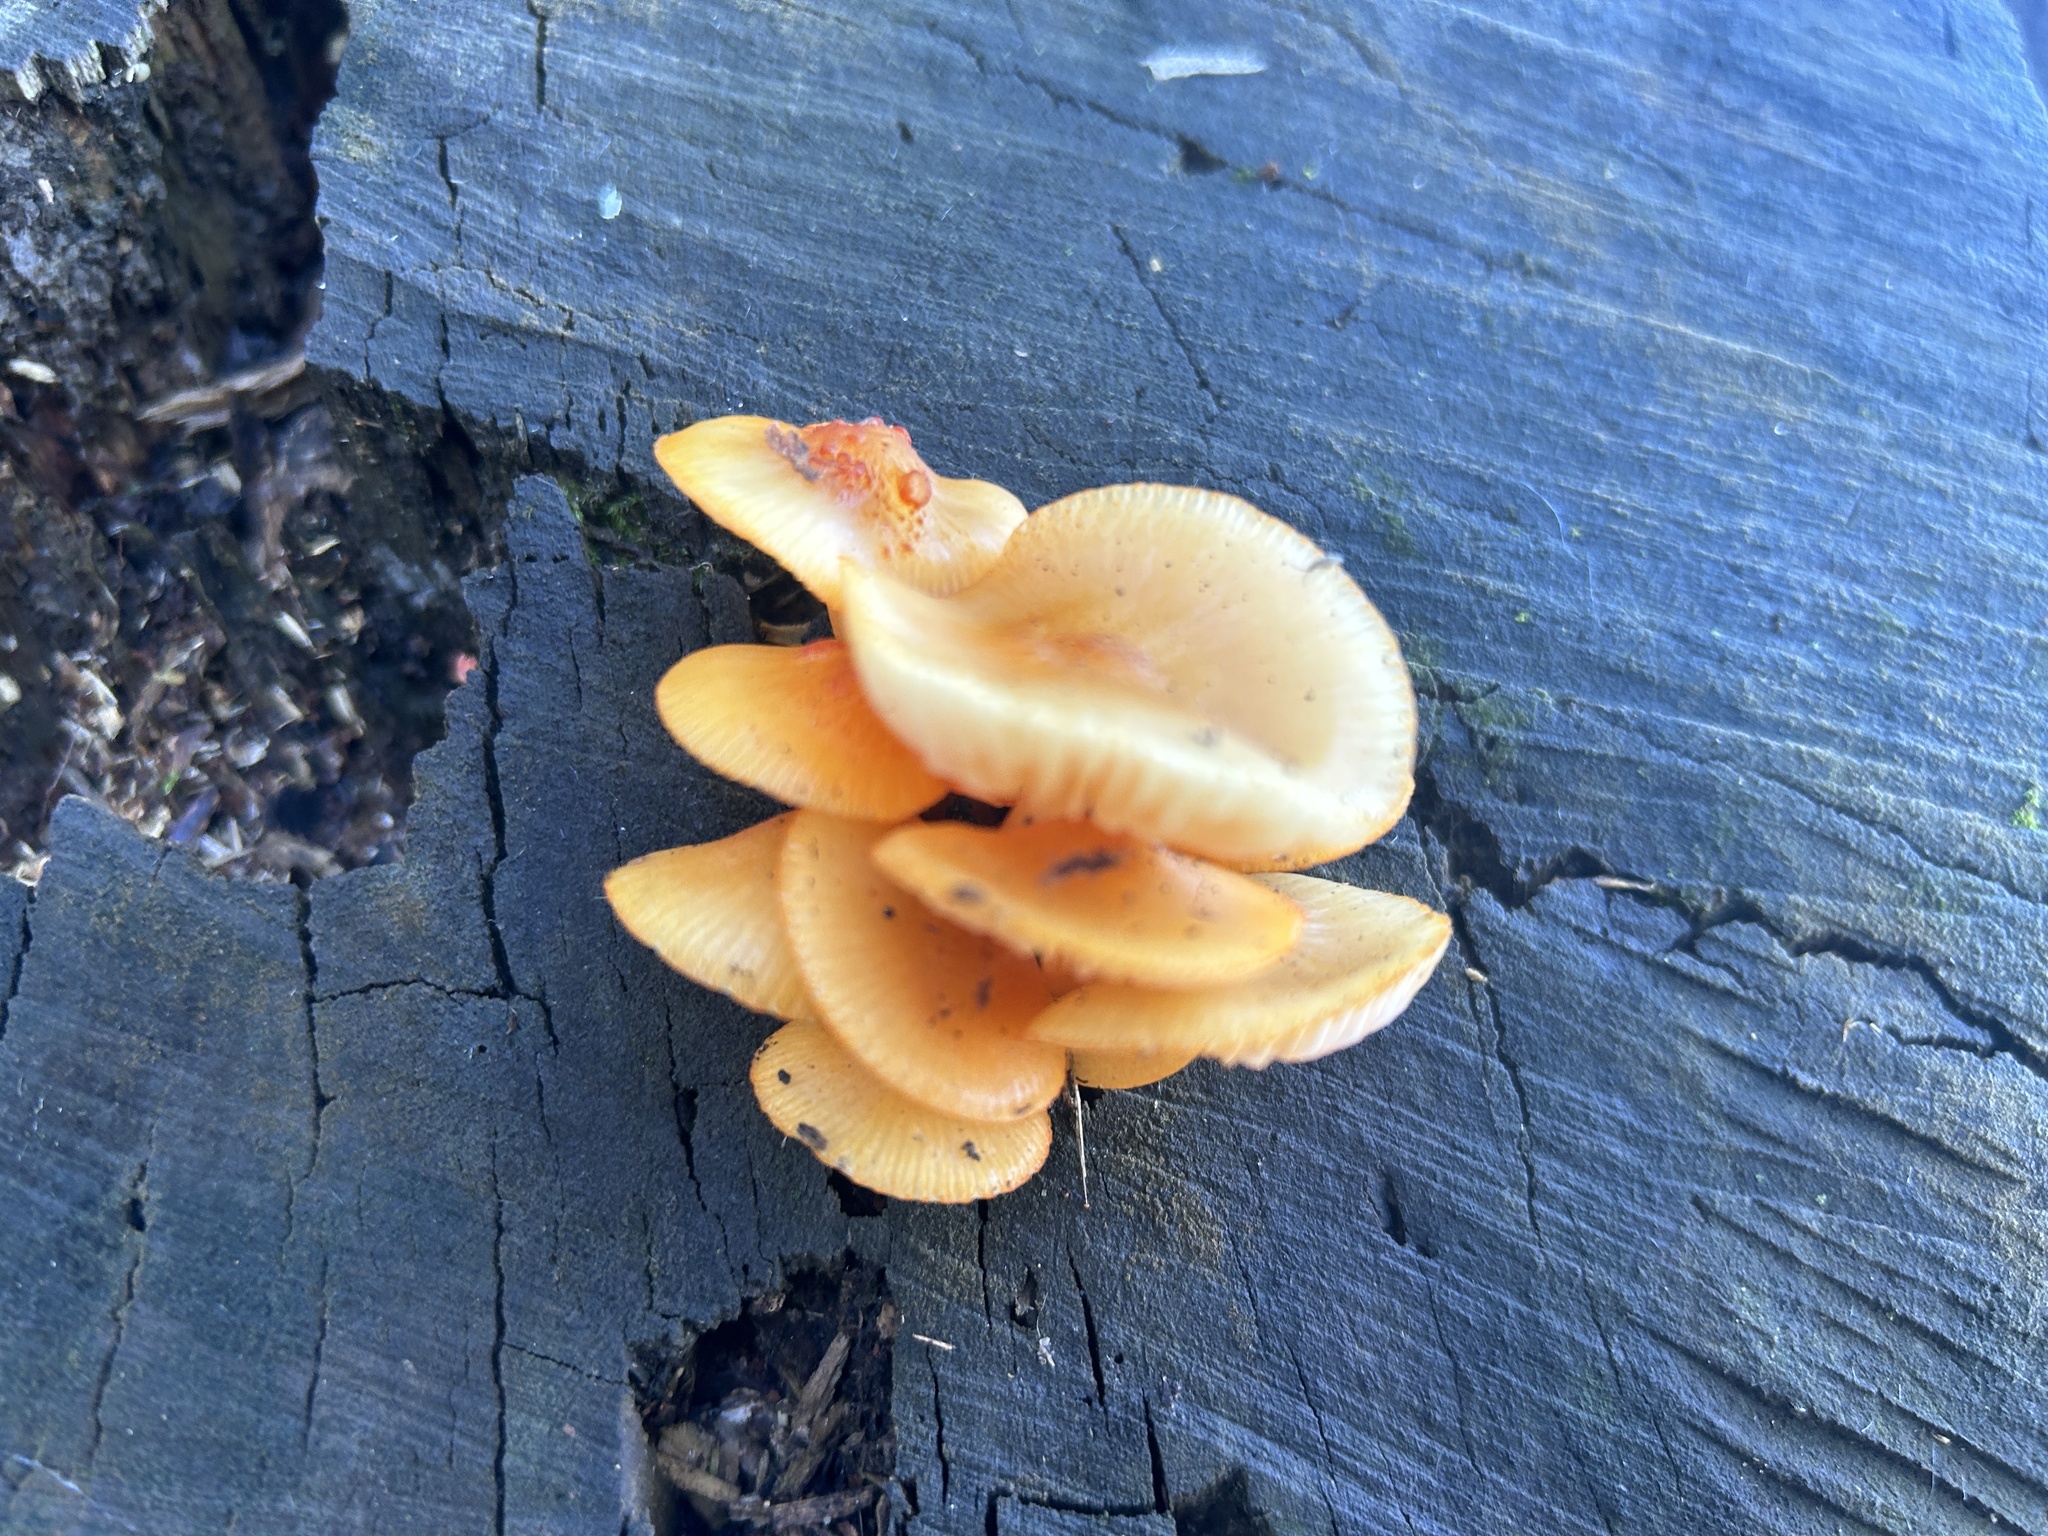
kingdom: Fungi
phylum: Basidiomycota
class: Agaricomycetes
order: Agaricales
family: Mycenaceae
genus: Mycena
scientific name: Mycena leaiana
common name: Orange mycena
